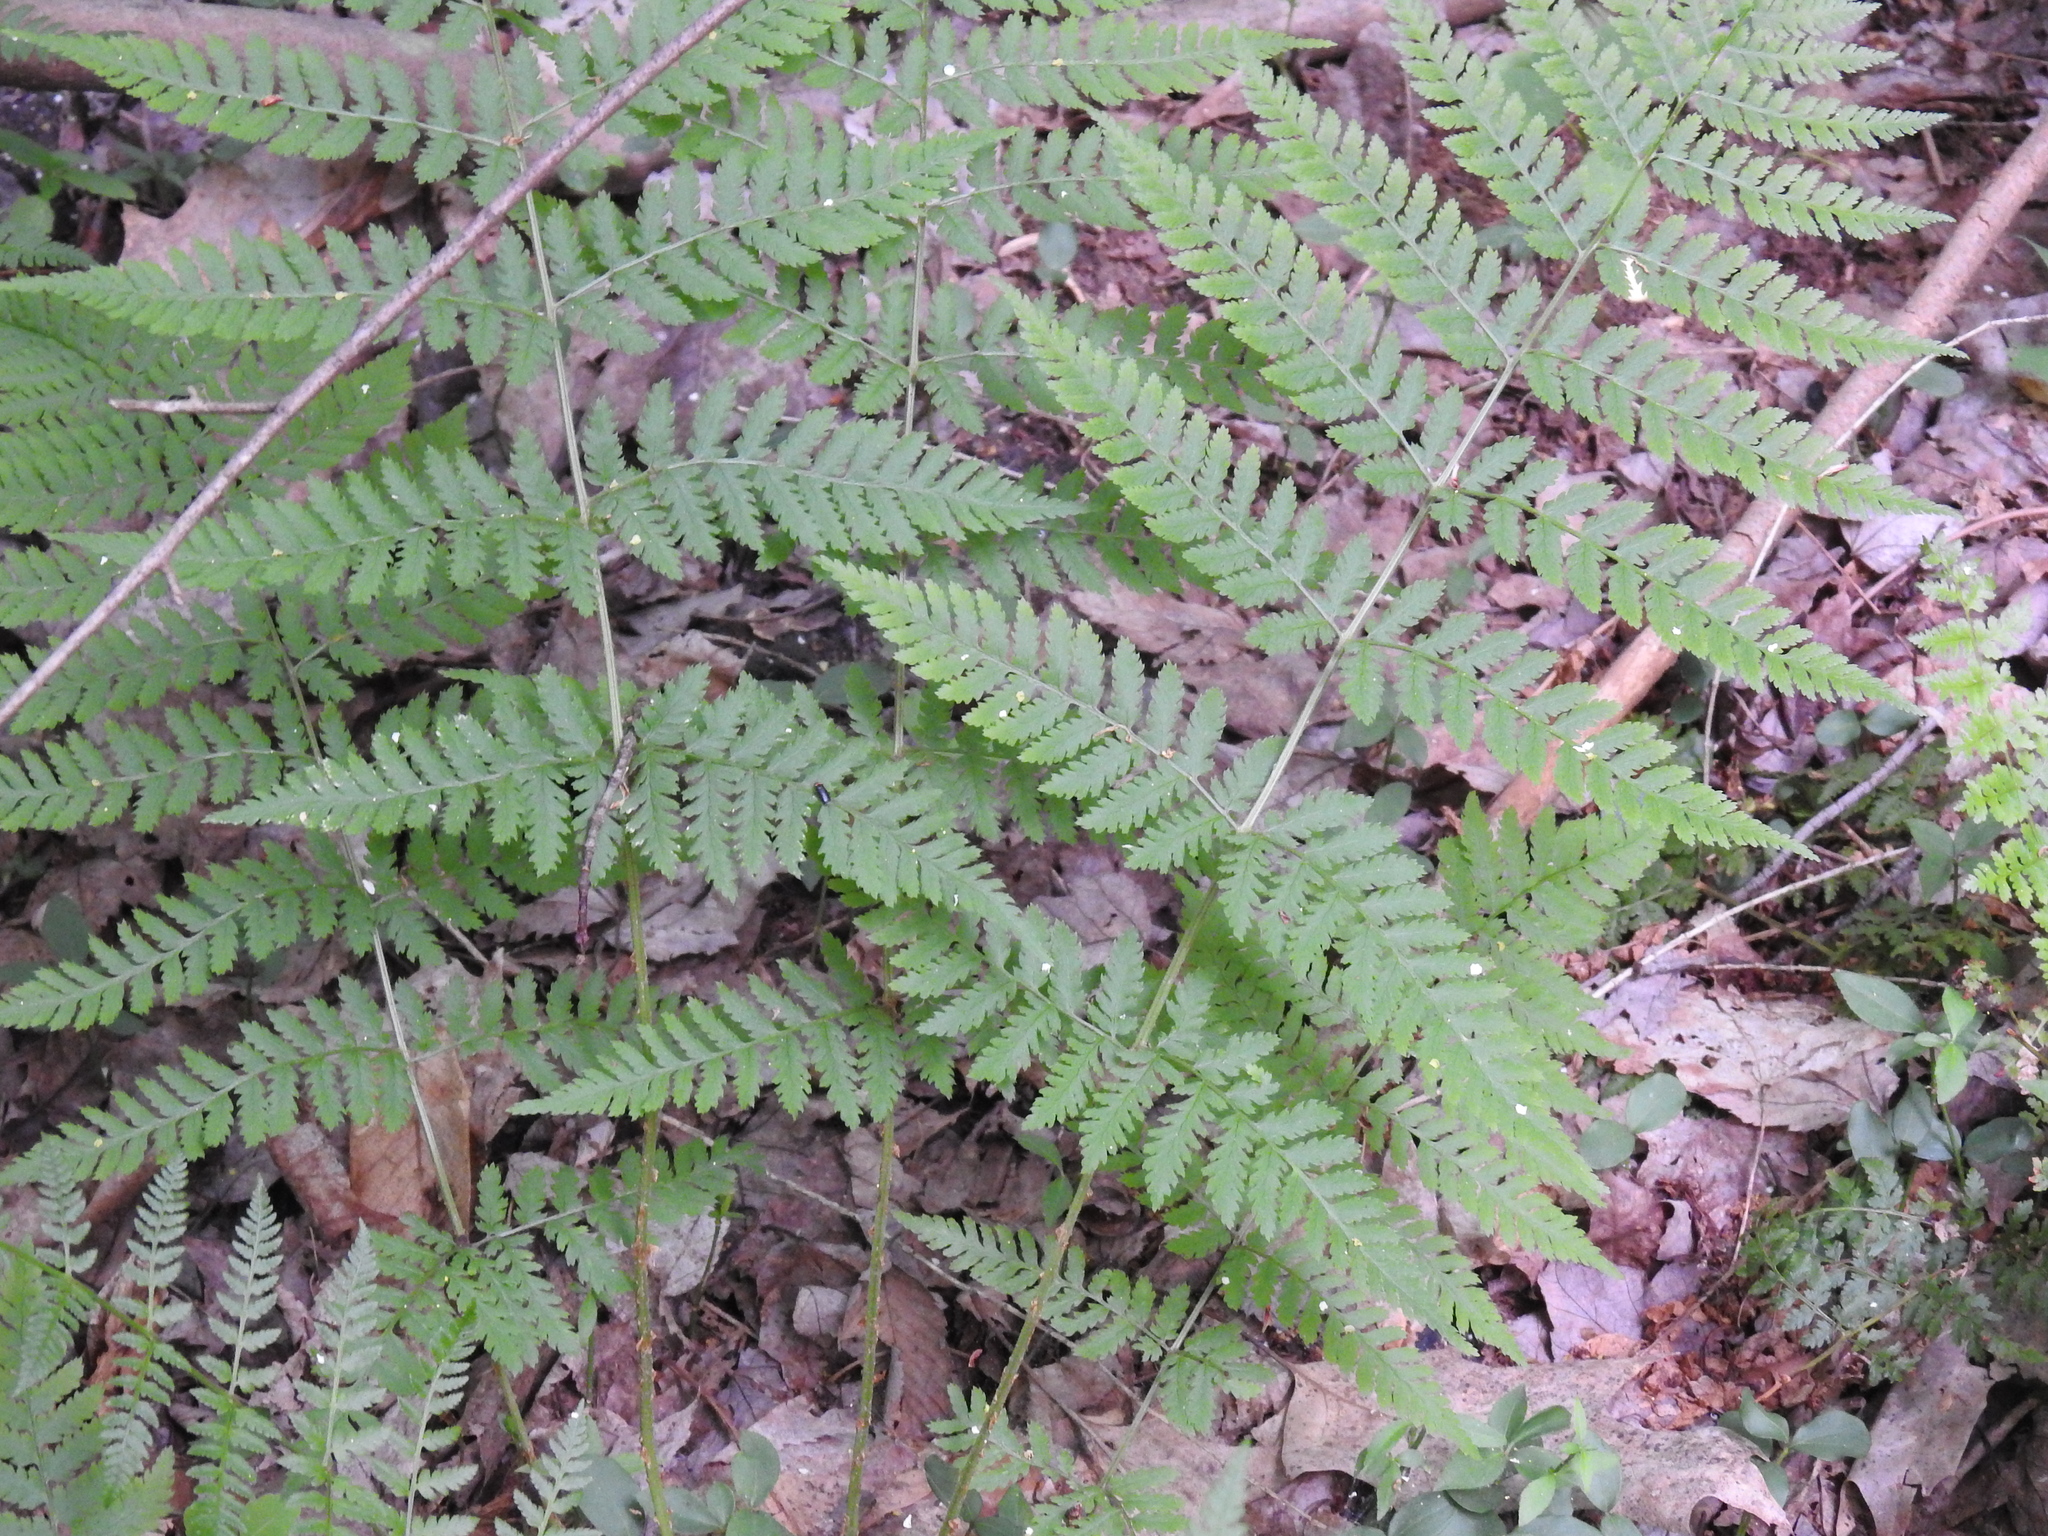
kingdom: Plantae
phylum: Tracheophyta
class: Polypodiopsida
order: Polypodiales
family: Dryopteridaceae
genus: Dryopteris
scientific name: Dryopteris intermedia
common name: Evergreen wood fern
